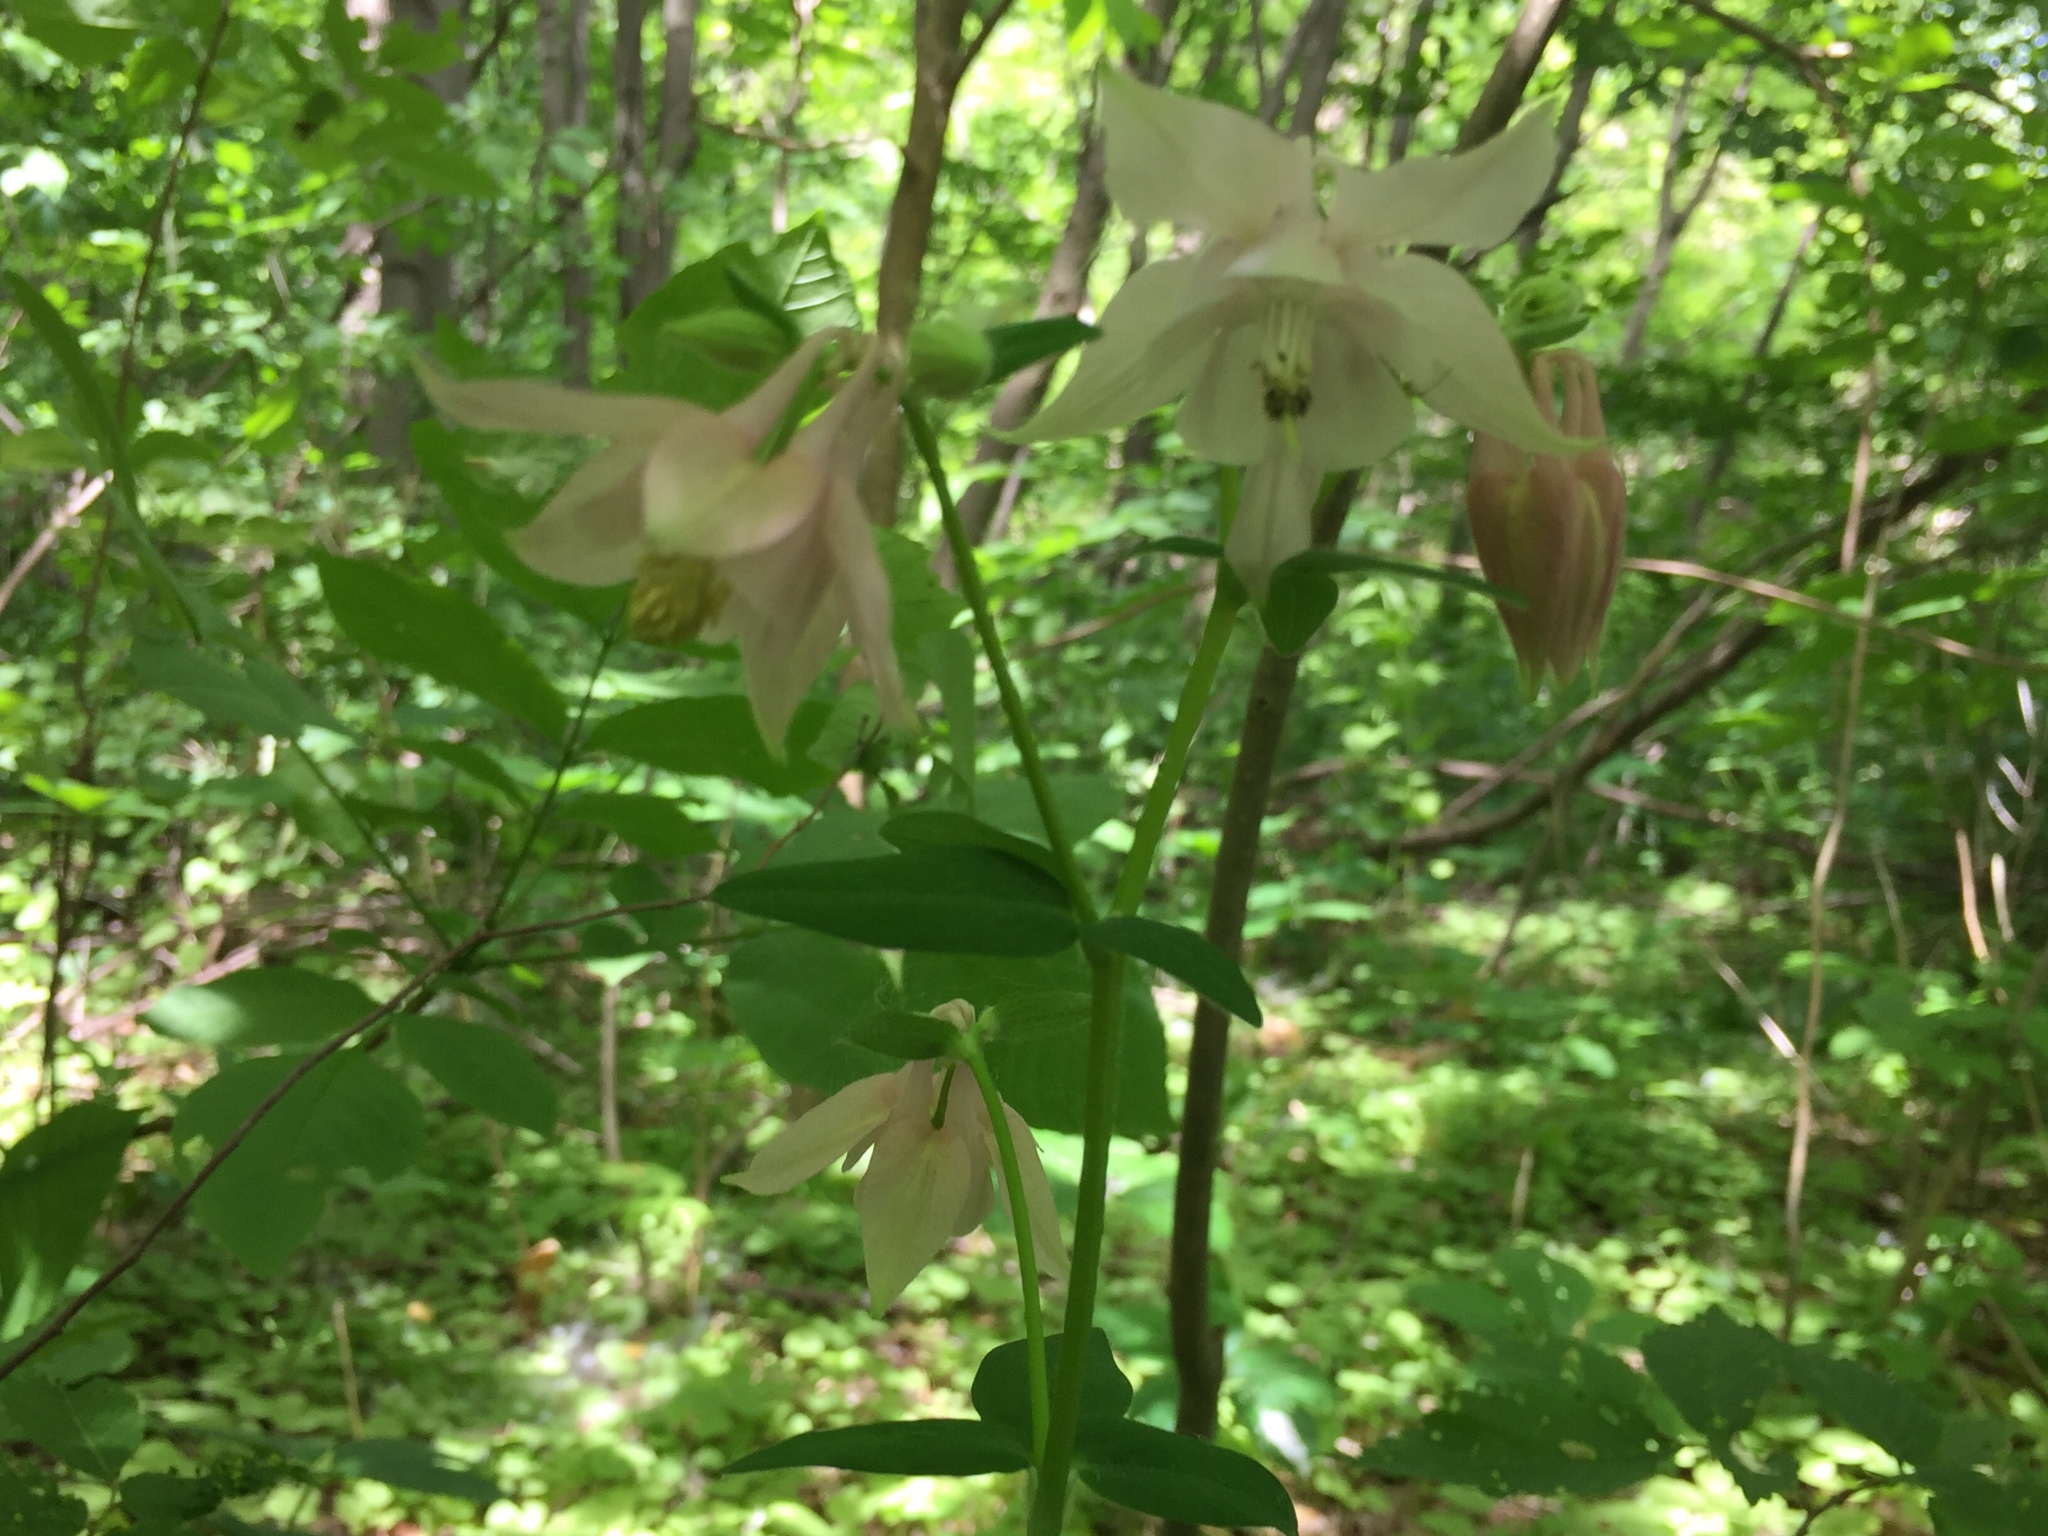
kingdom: Plantae
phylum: Tracheophyta
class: Magnoliopsida
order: Ranunculales
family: Ranunculaceae
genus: Aquilegia
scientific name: Aquilegia vulgaris
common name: Columbine
